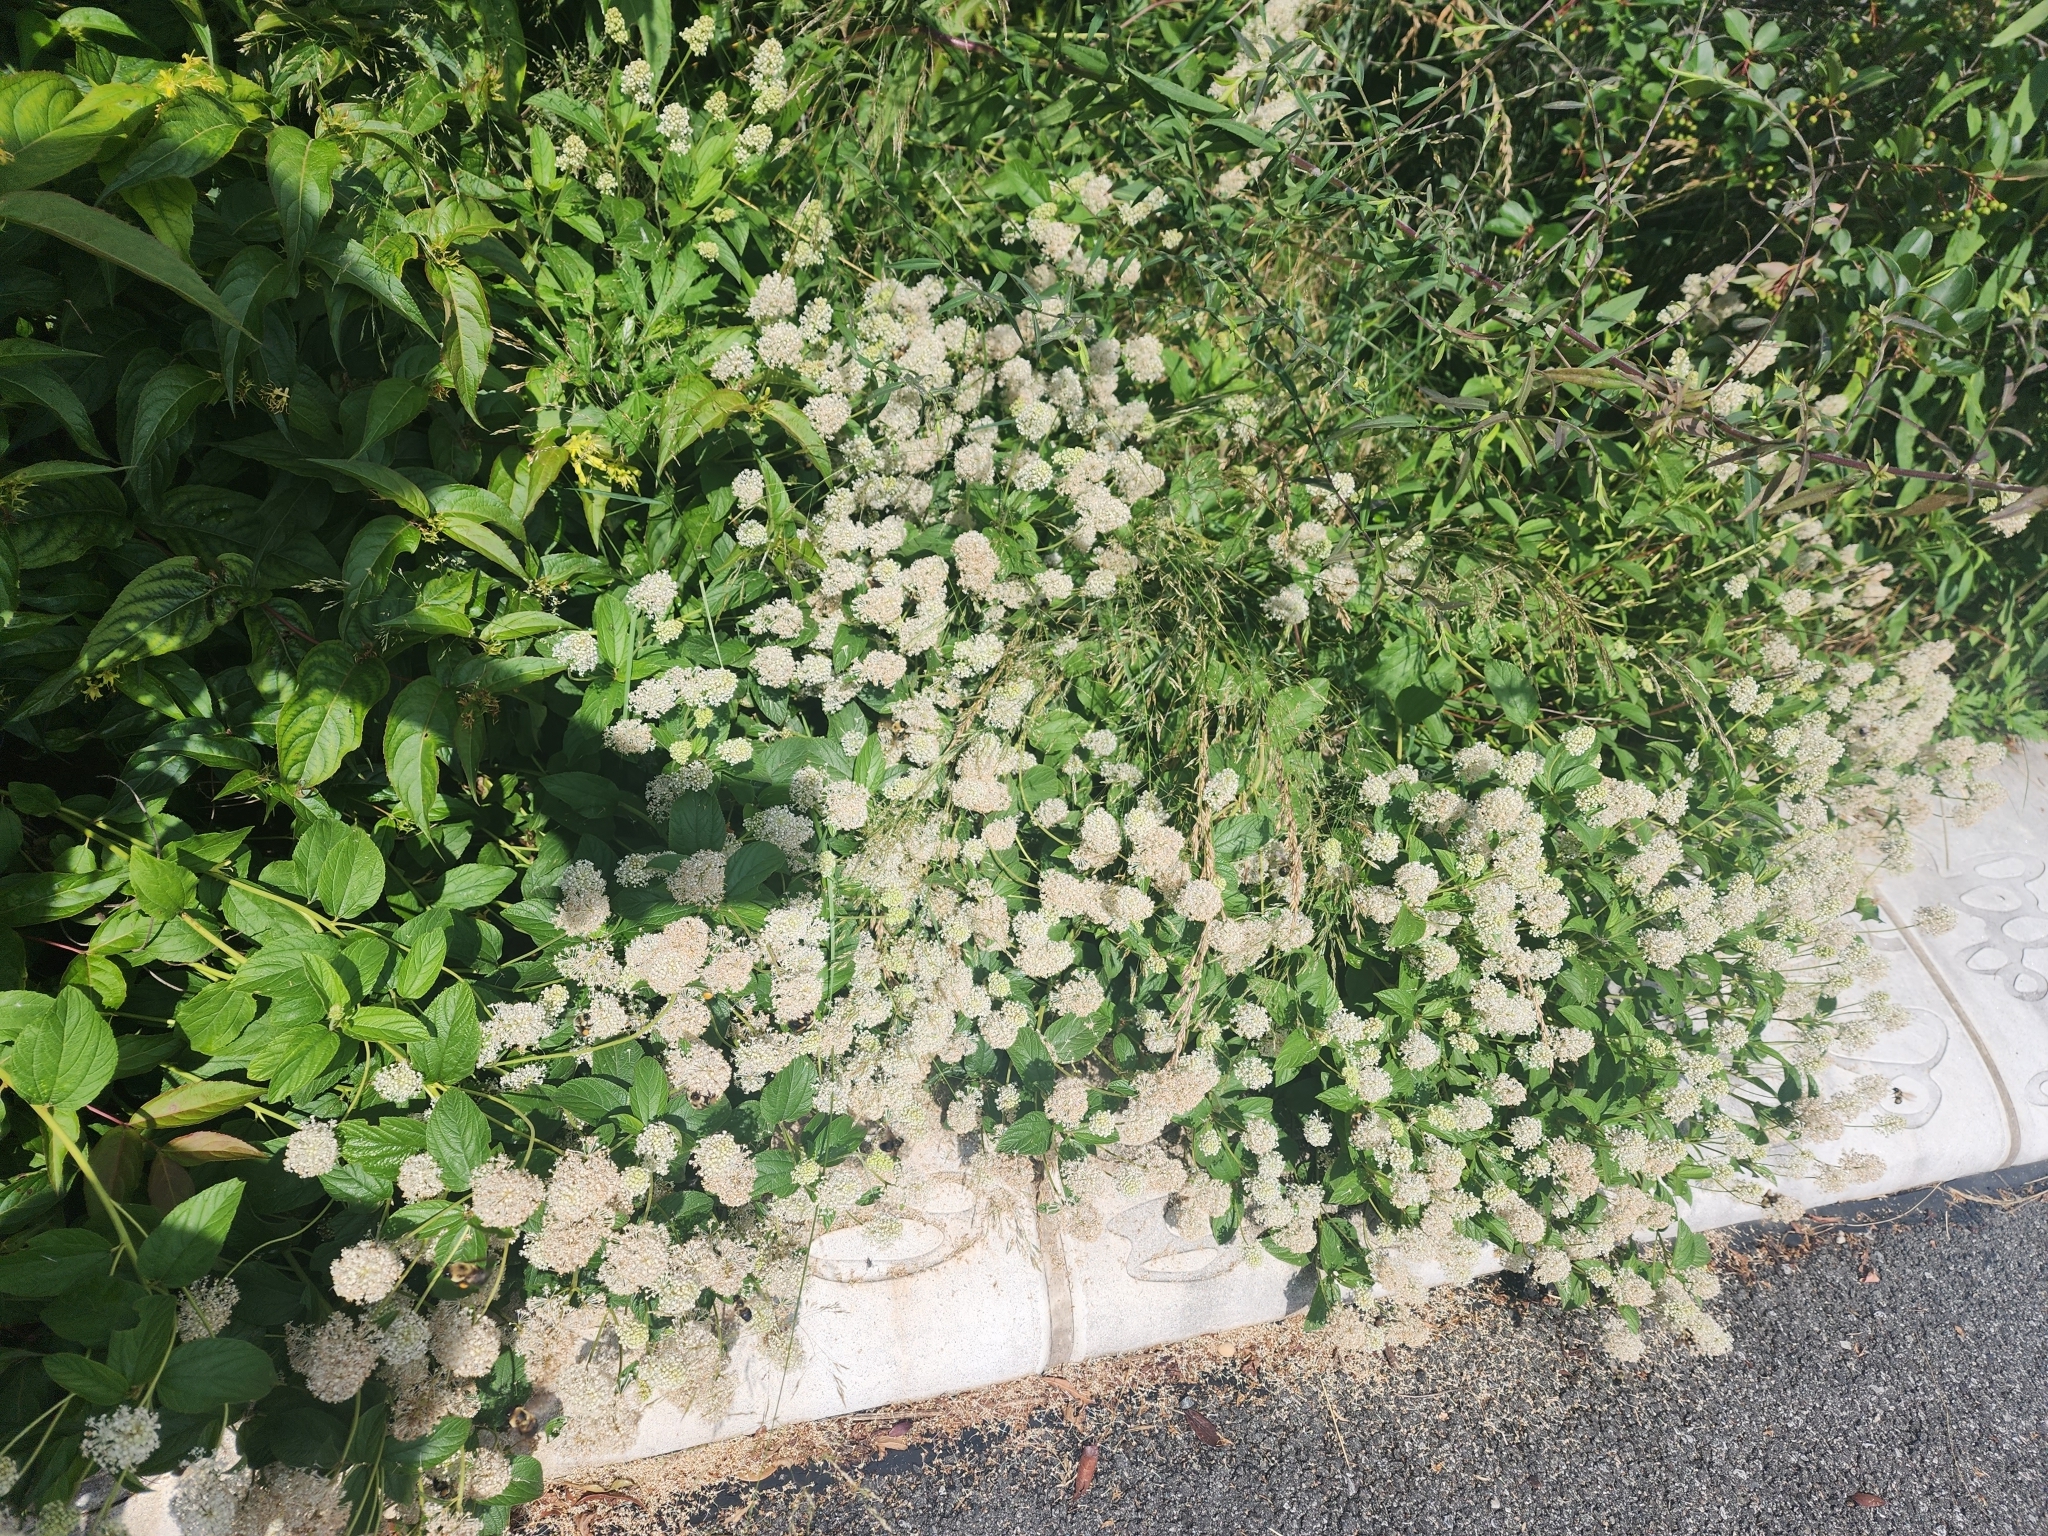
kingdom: Plantae
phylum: Tracheophyta
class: Magnoliopsida
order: Rosales
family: Rhamnaceae
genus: Ceanothus
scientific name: Ceanothus americanus
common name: Redroot
